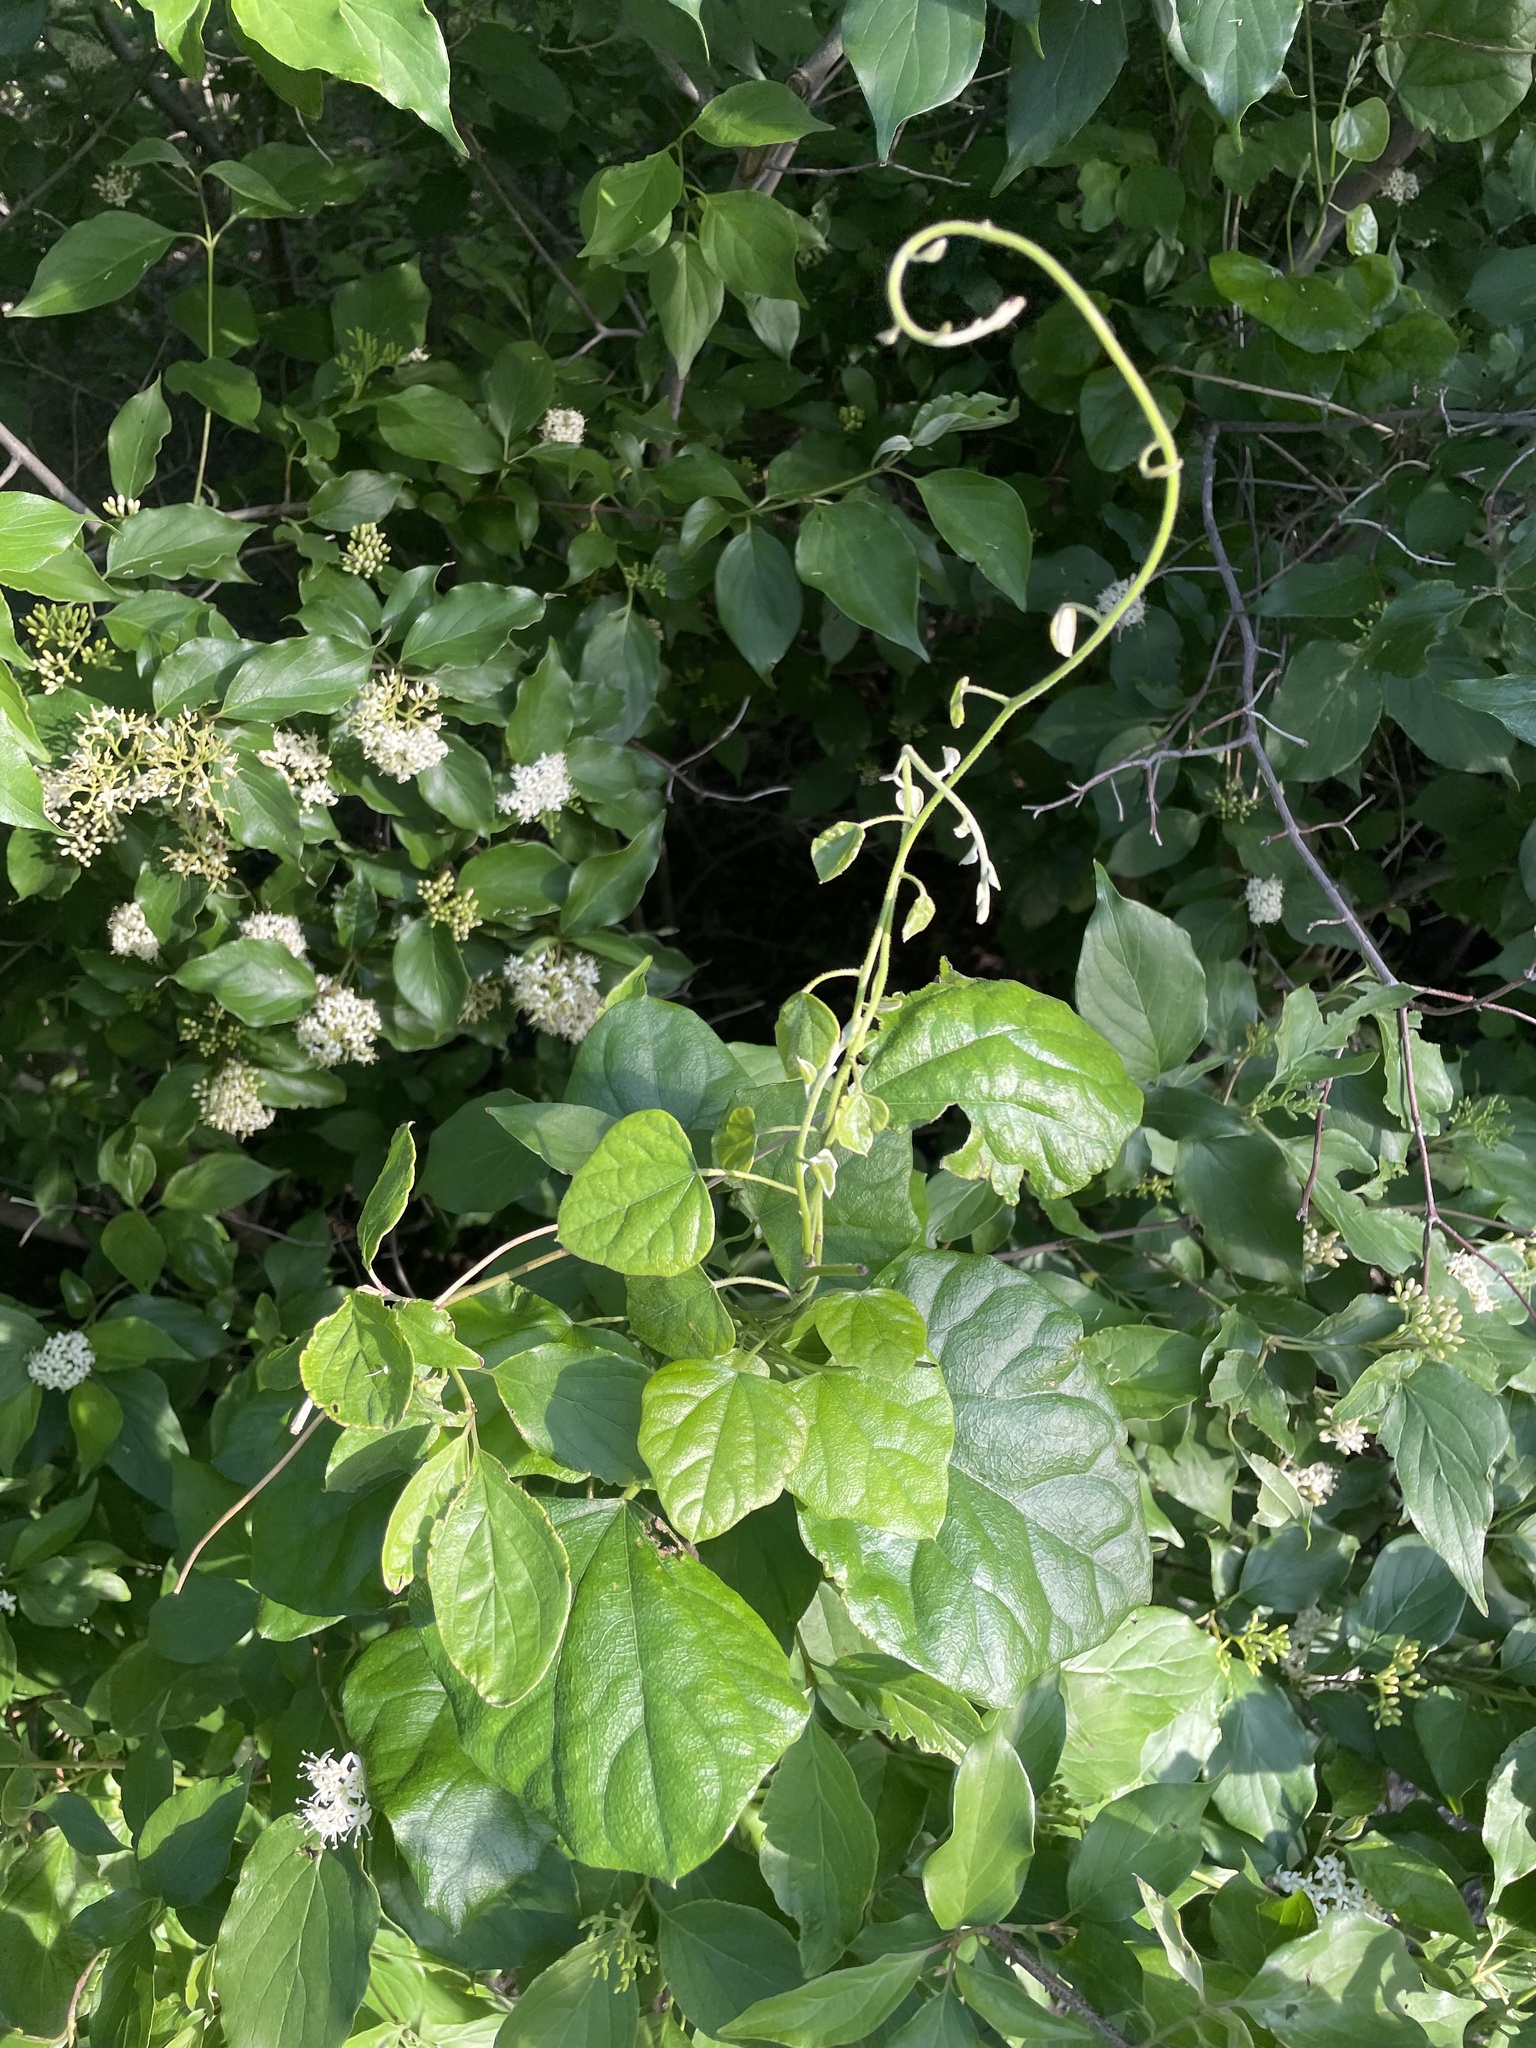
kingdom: Plantae
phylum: Tracheophyta
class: Magnoliopsida
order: Ranunculales
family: Menispermaceae
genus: Cocculus
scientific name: Cocculus carolinus
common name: Carolina moonseed
